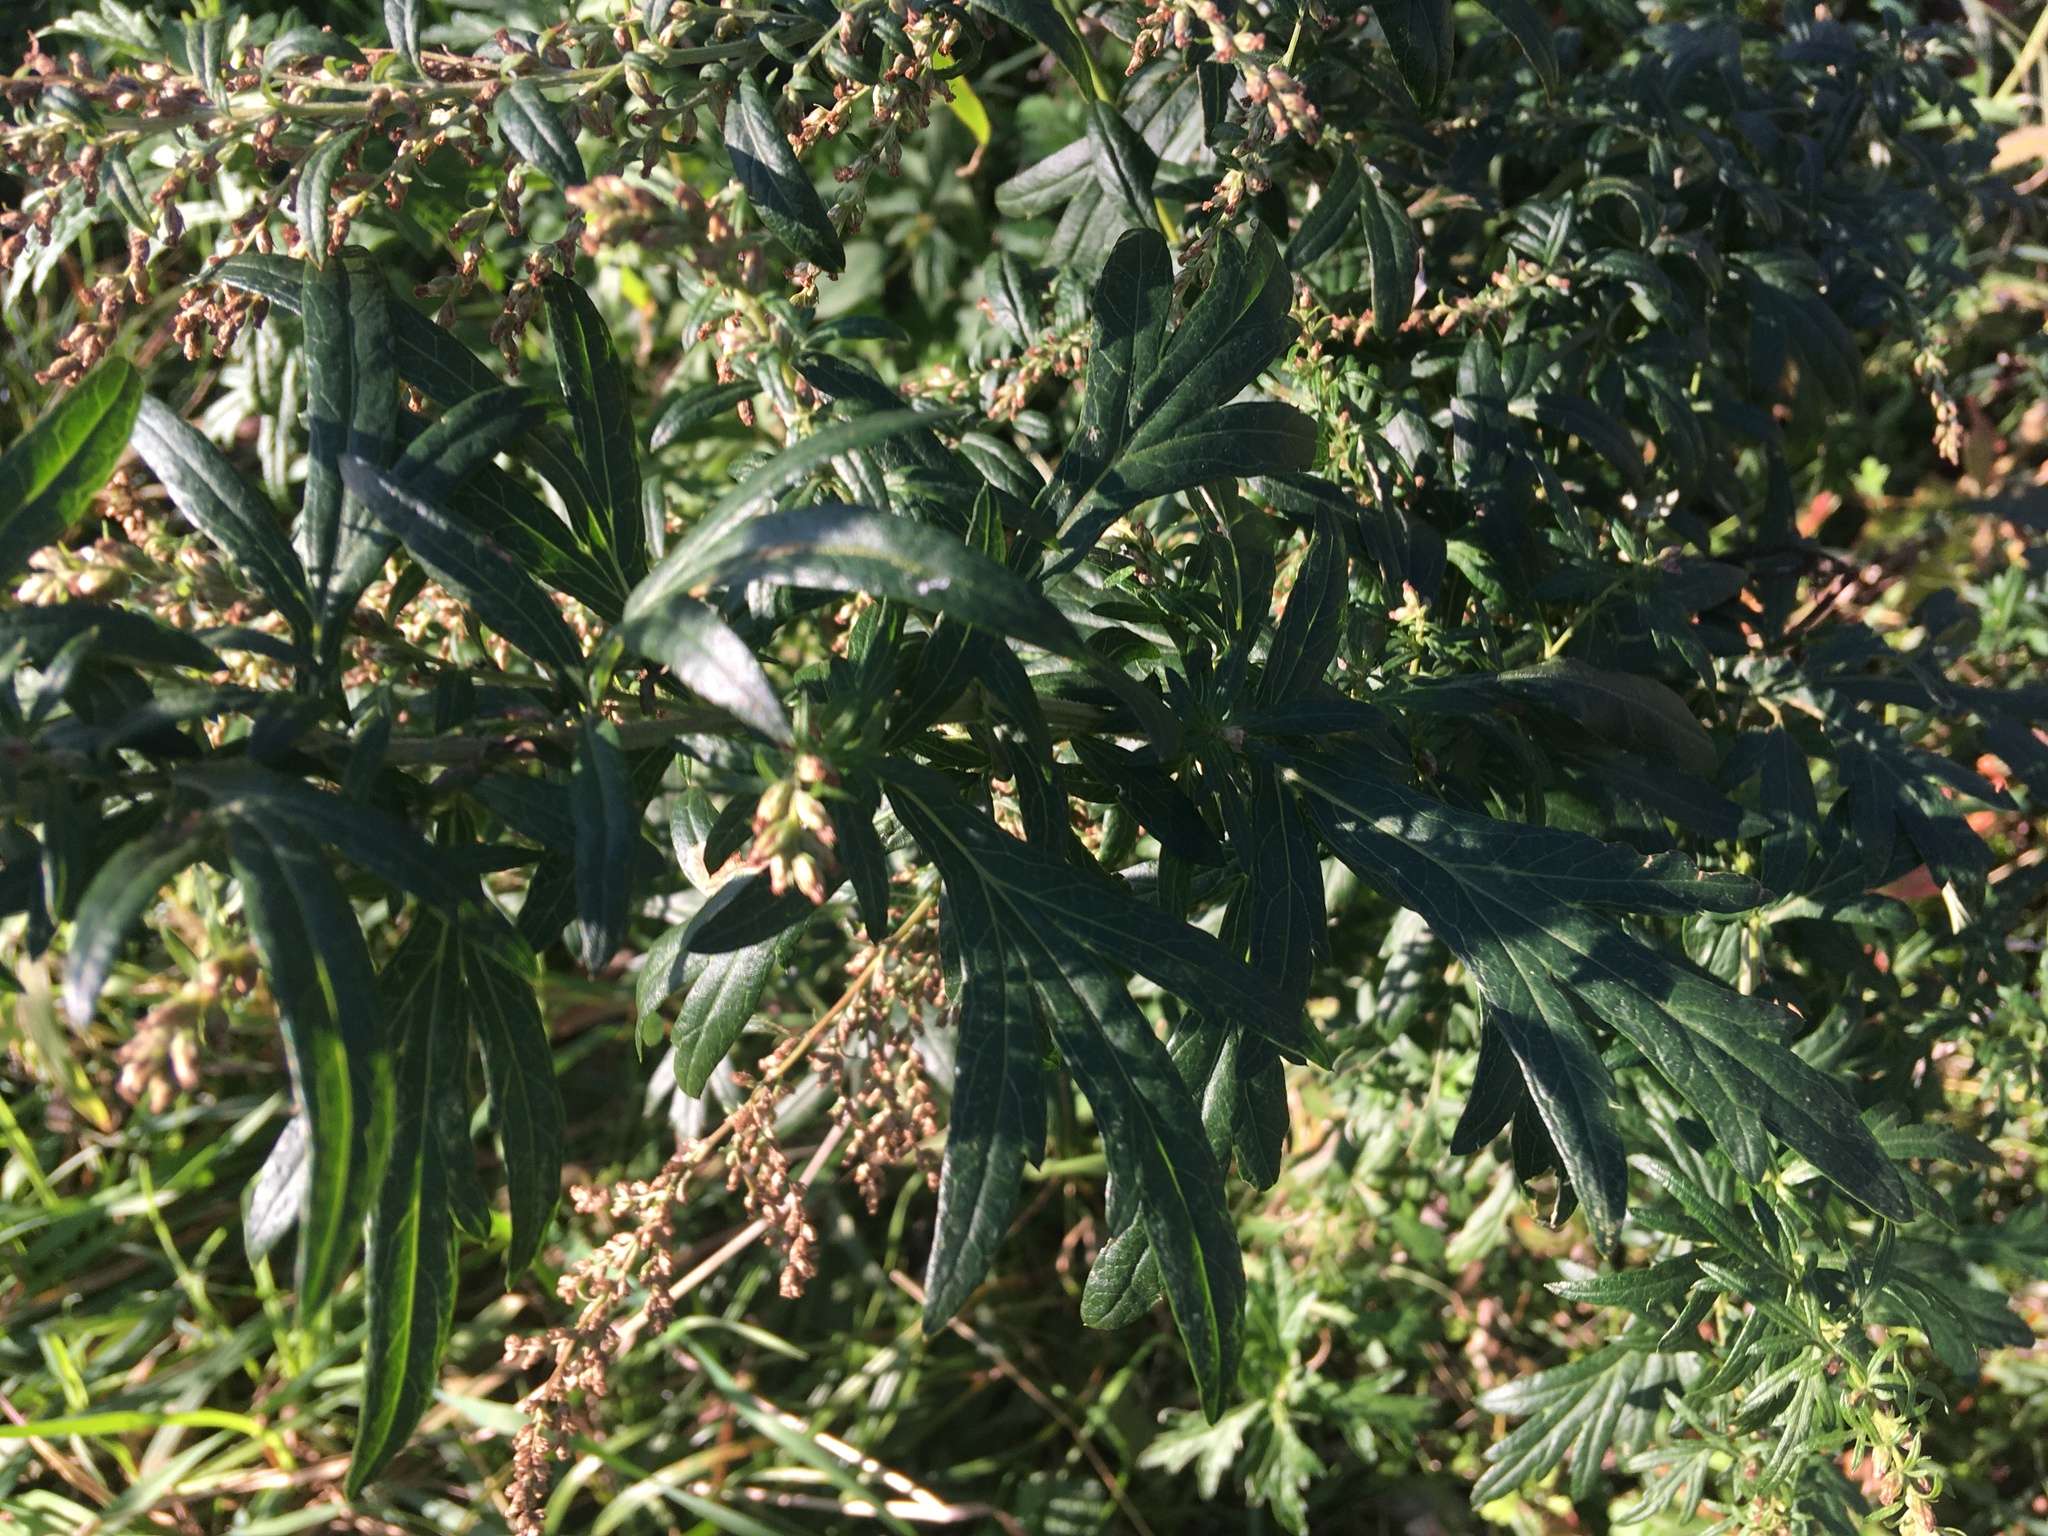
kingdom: Plantae
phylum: Tracheophyta
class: Magnoliopsida
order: Asterales
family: Asteraceae
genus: Artemisia
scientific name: Artemisia vulgaris
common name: Mugwort
